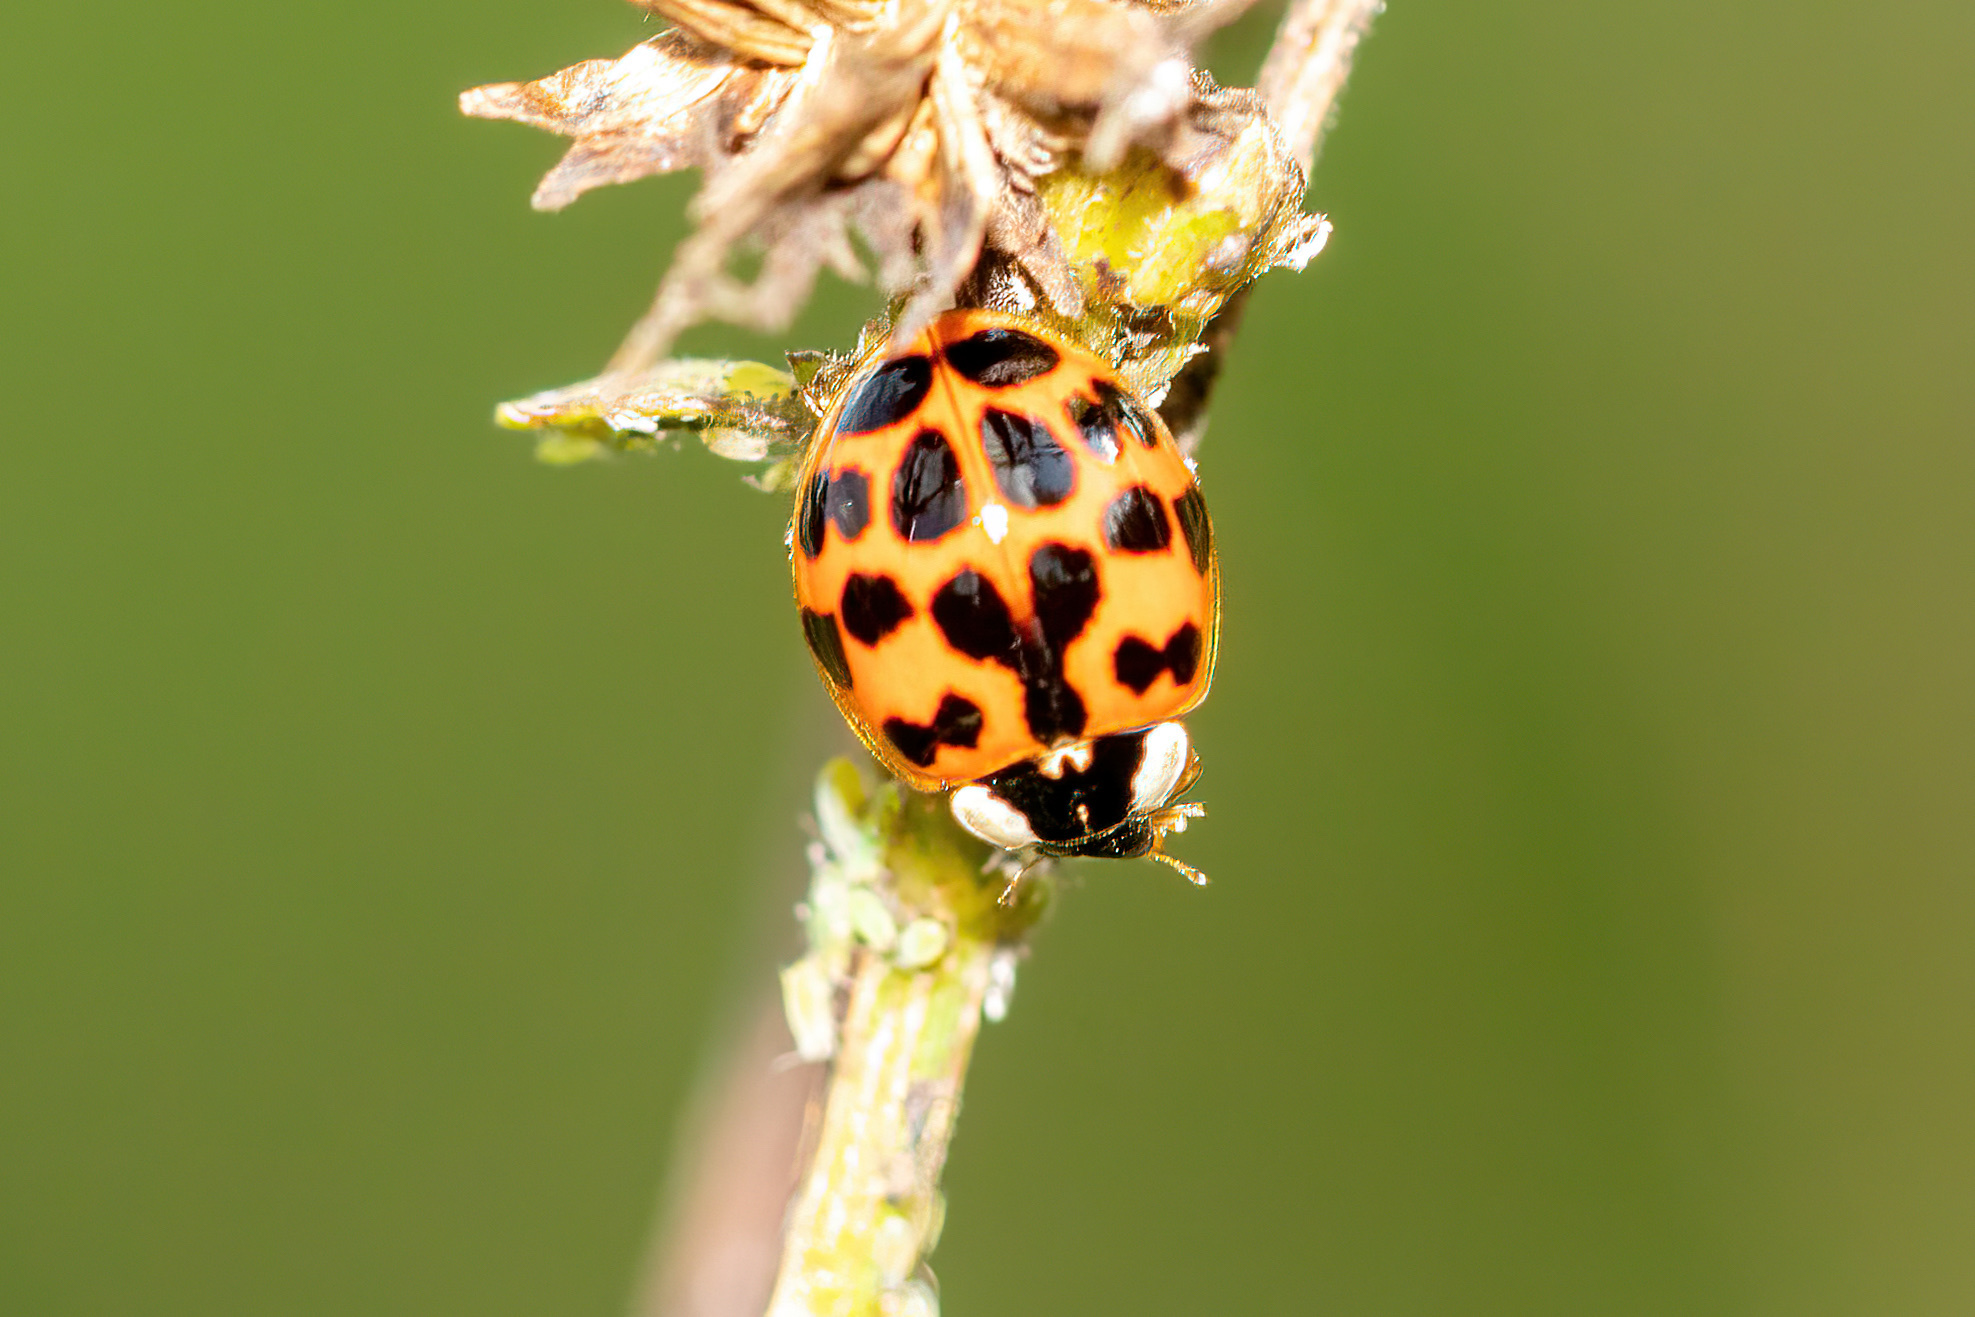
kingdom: Animalia
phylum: Arthropoda
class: Insecta
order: Coleoptera
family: Coccinellidae
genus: Harmonia
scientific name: Harmonia axyridis
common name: Harlequin ladybird
